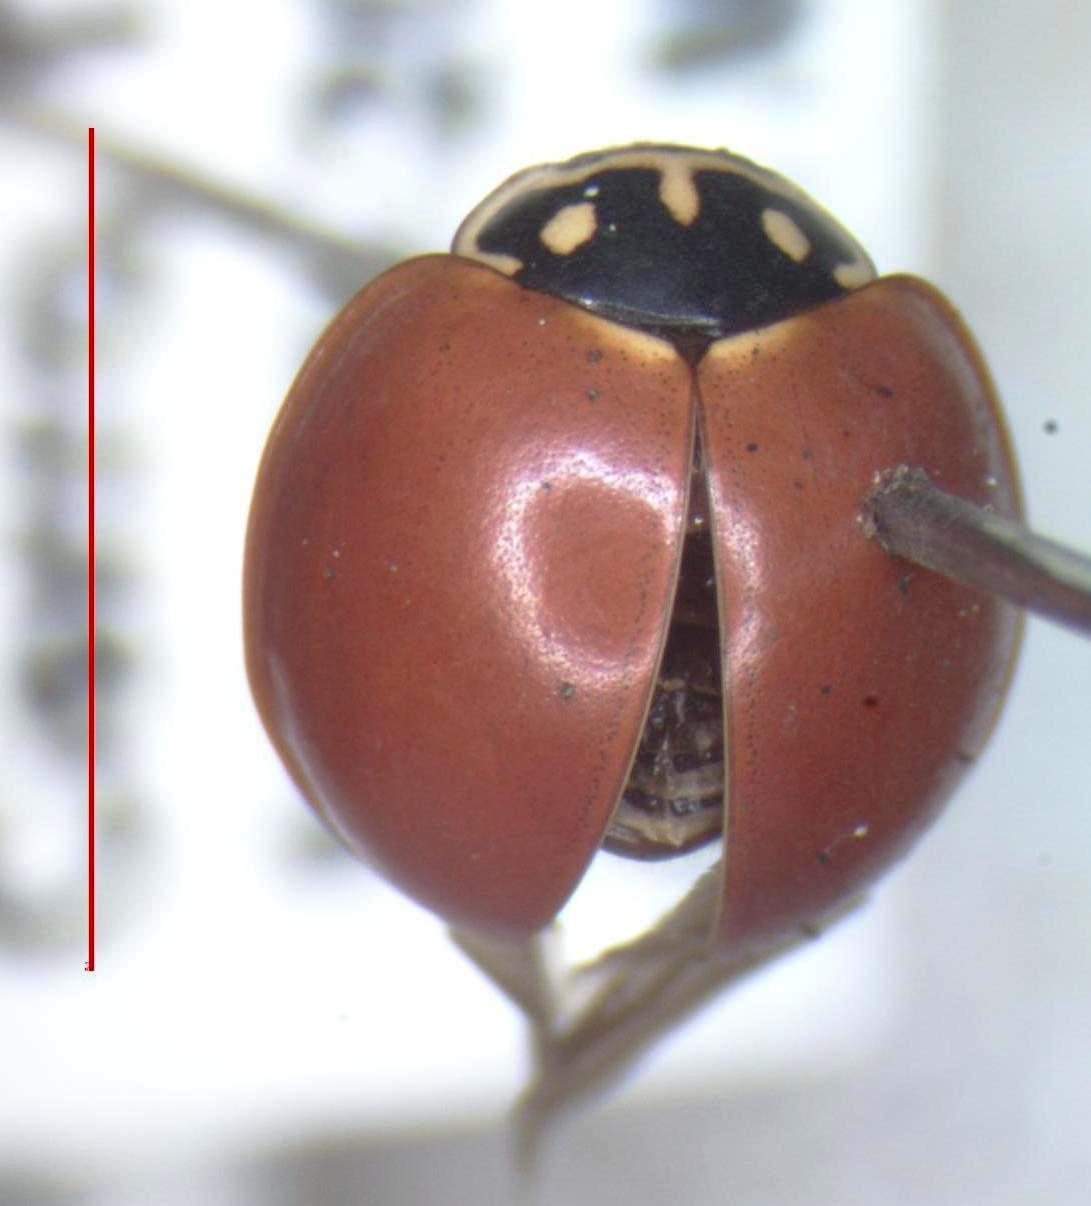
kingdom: Animalia
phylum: Arthropoda
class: Insecta
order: Coleoptera
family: Coccinellidae
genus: Cycloneda
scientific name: Cycloneda sanguinea
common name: Ladybird beetle
